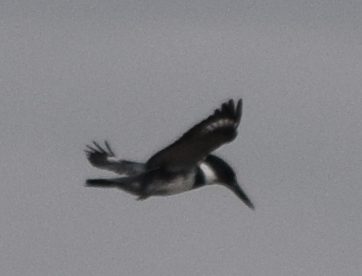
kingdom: Animalia
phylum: Chordata
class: Aves
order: Coraciiformes
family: Alcedinidae
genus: Megaceryle
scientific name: Megaceryle alcyon
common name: Belted kingfisher
